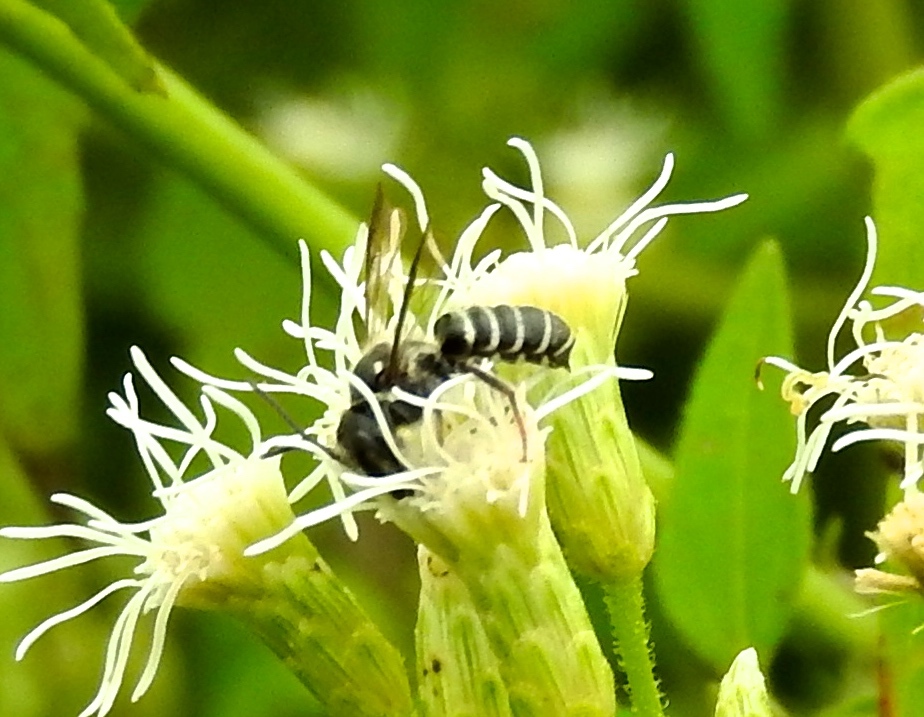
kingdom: Animalia
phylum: Arthropoda
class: Insecta
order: Hymenoptera
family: Megachilidae
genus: Megachile
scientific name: Megachile
